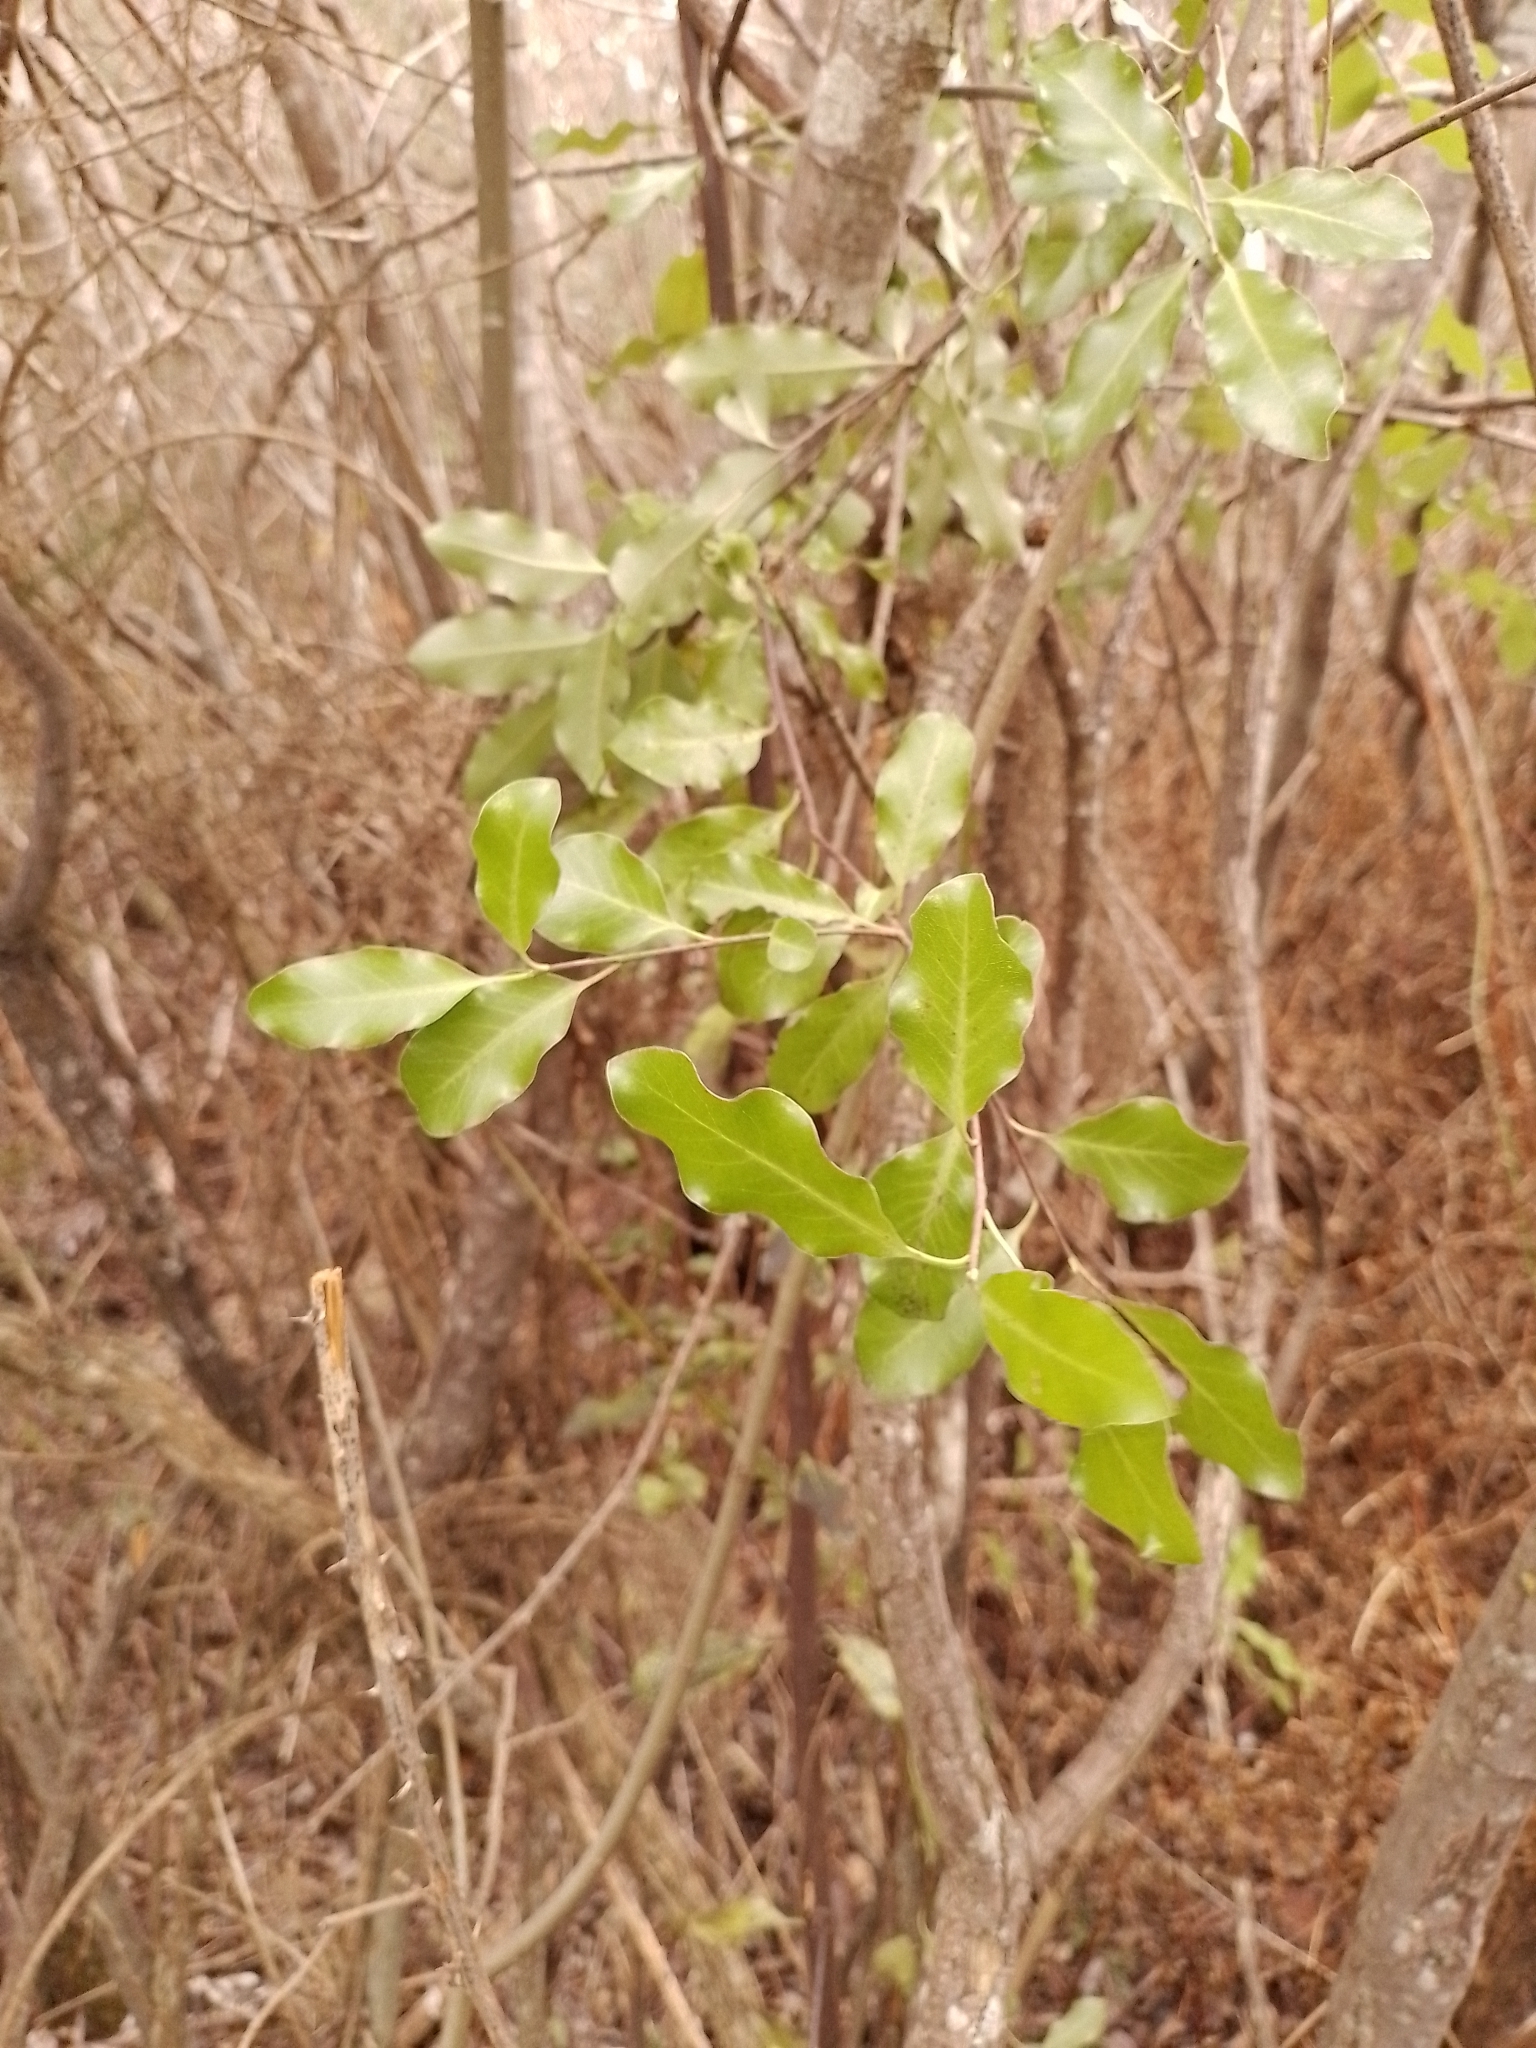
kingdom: Plantae
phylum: Tracheophyta
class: Magnoliopsida
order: Apiales
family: Pittosporaceae
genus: Pittosporum
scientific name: Pittosporum tenuifolium
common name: Kohuhu
